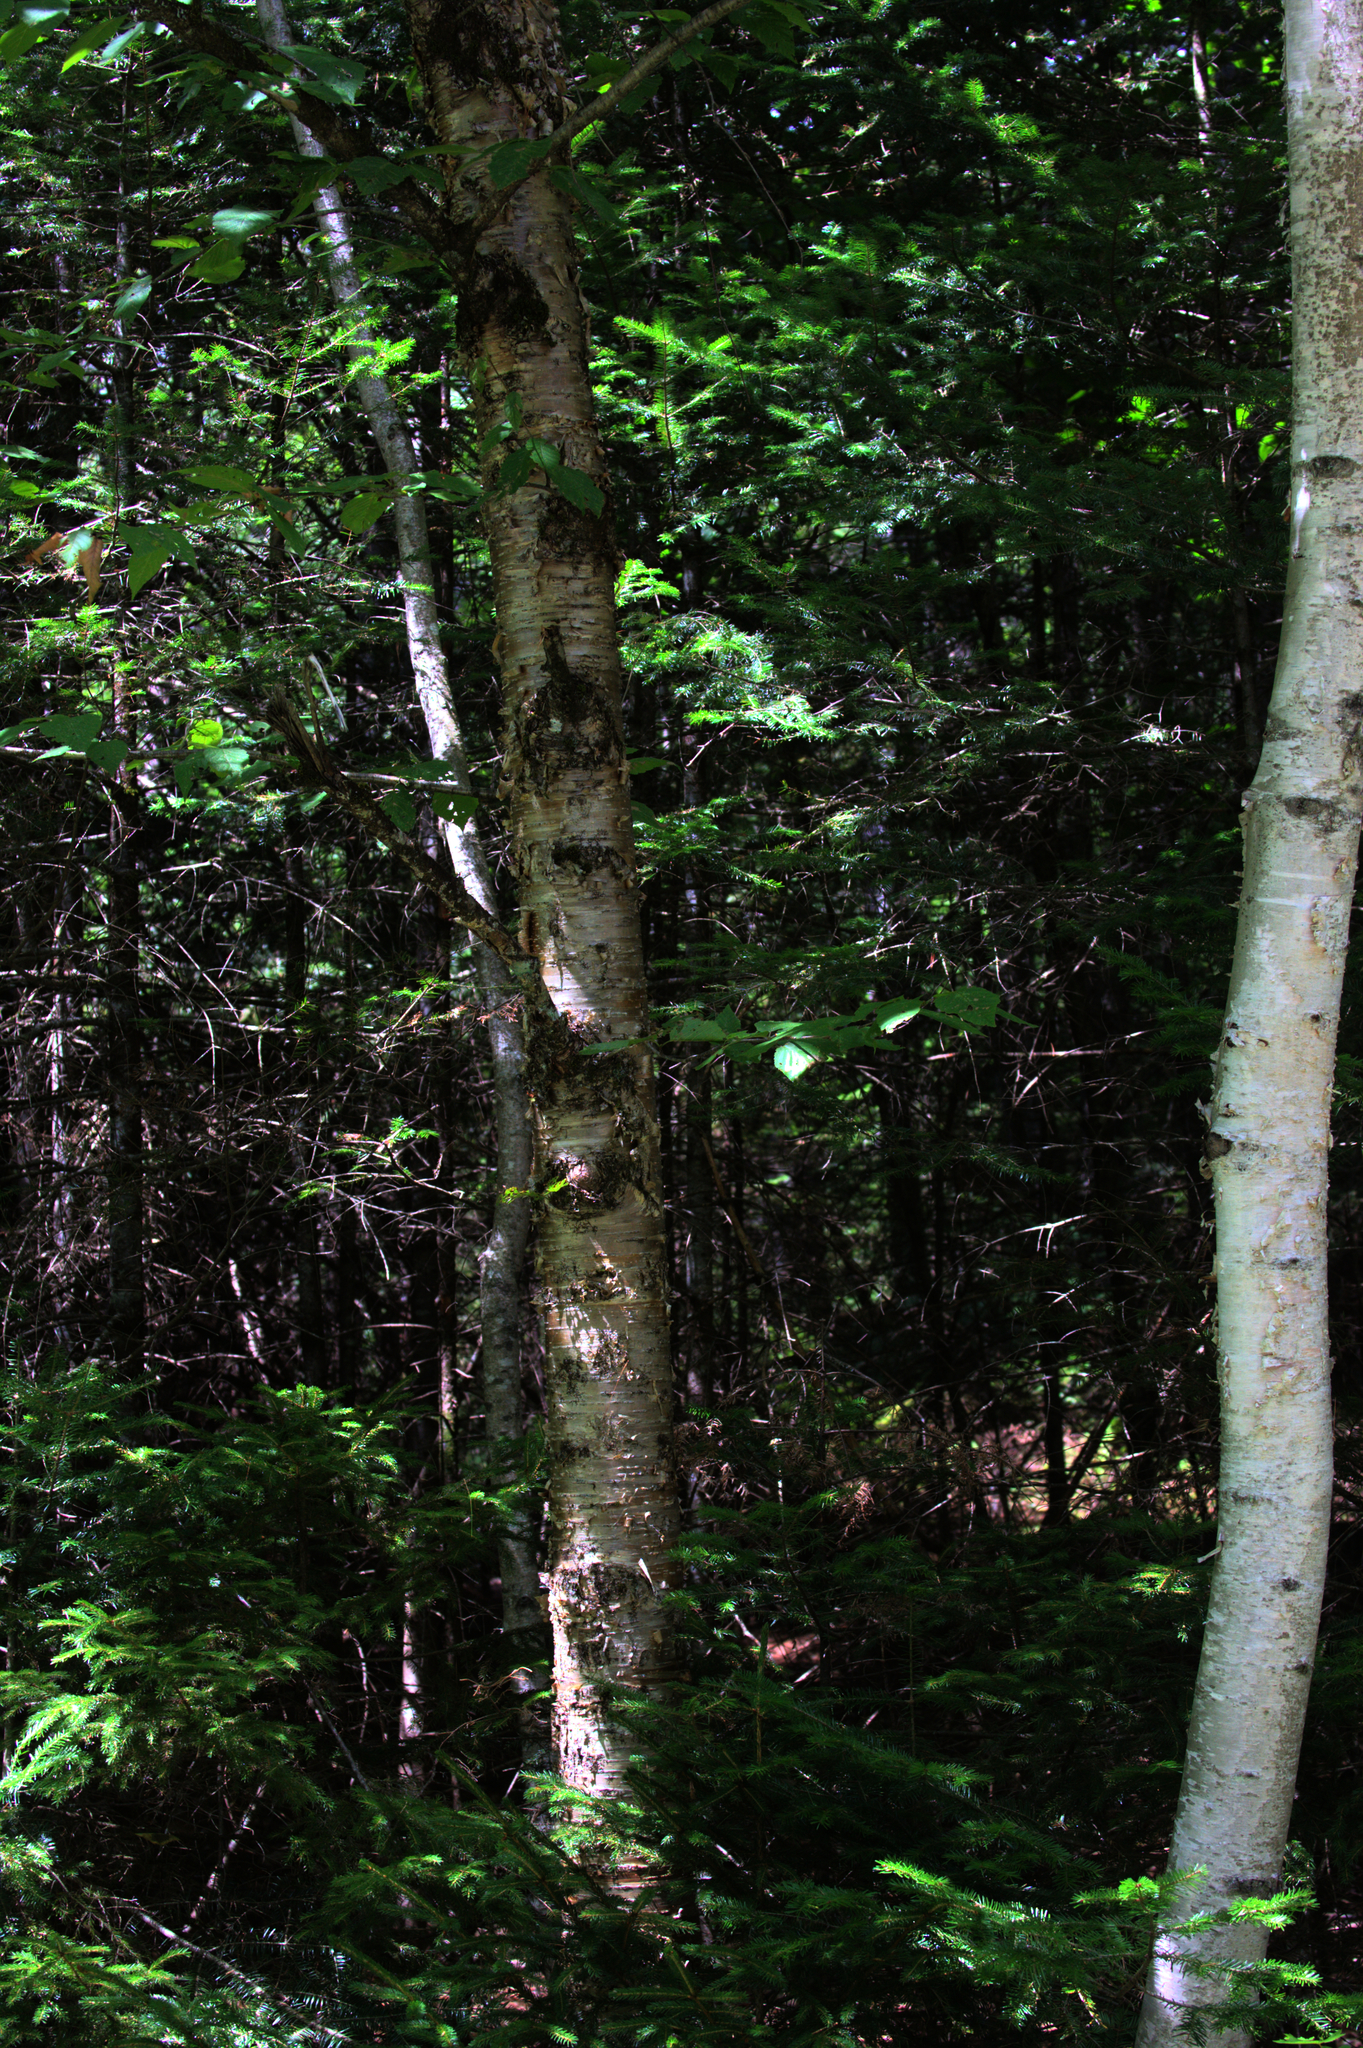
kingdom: Plantae
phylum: Tracheophyta
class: Magnoliopsida
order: Fagales
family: Betulaceae
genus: Betula
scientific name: Betula alleghaniensis
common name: Yellow birch
